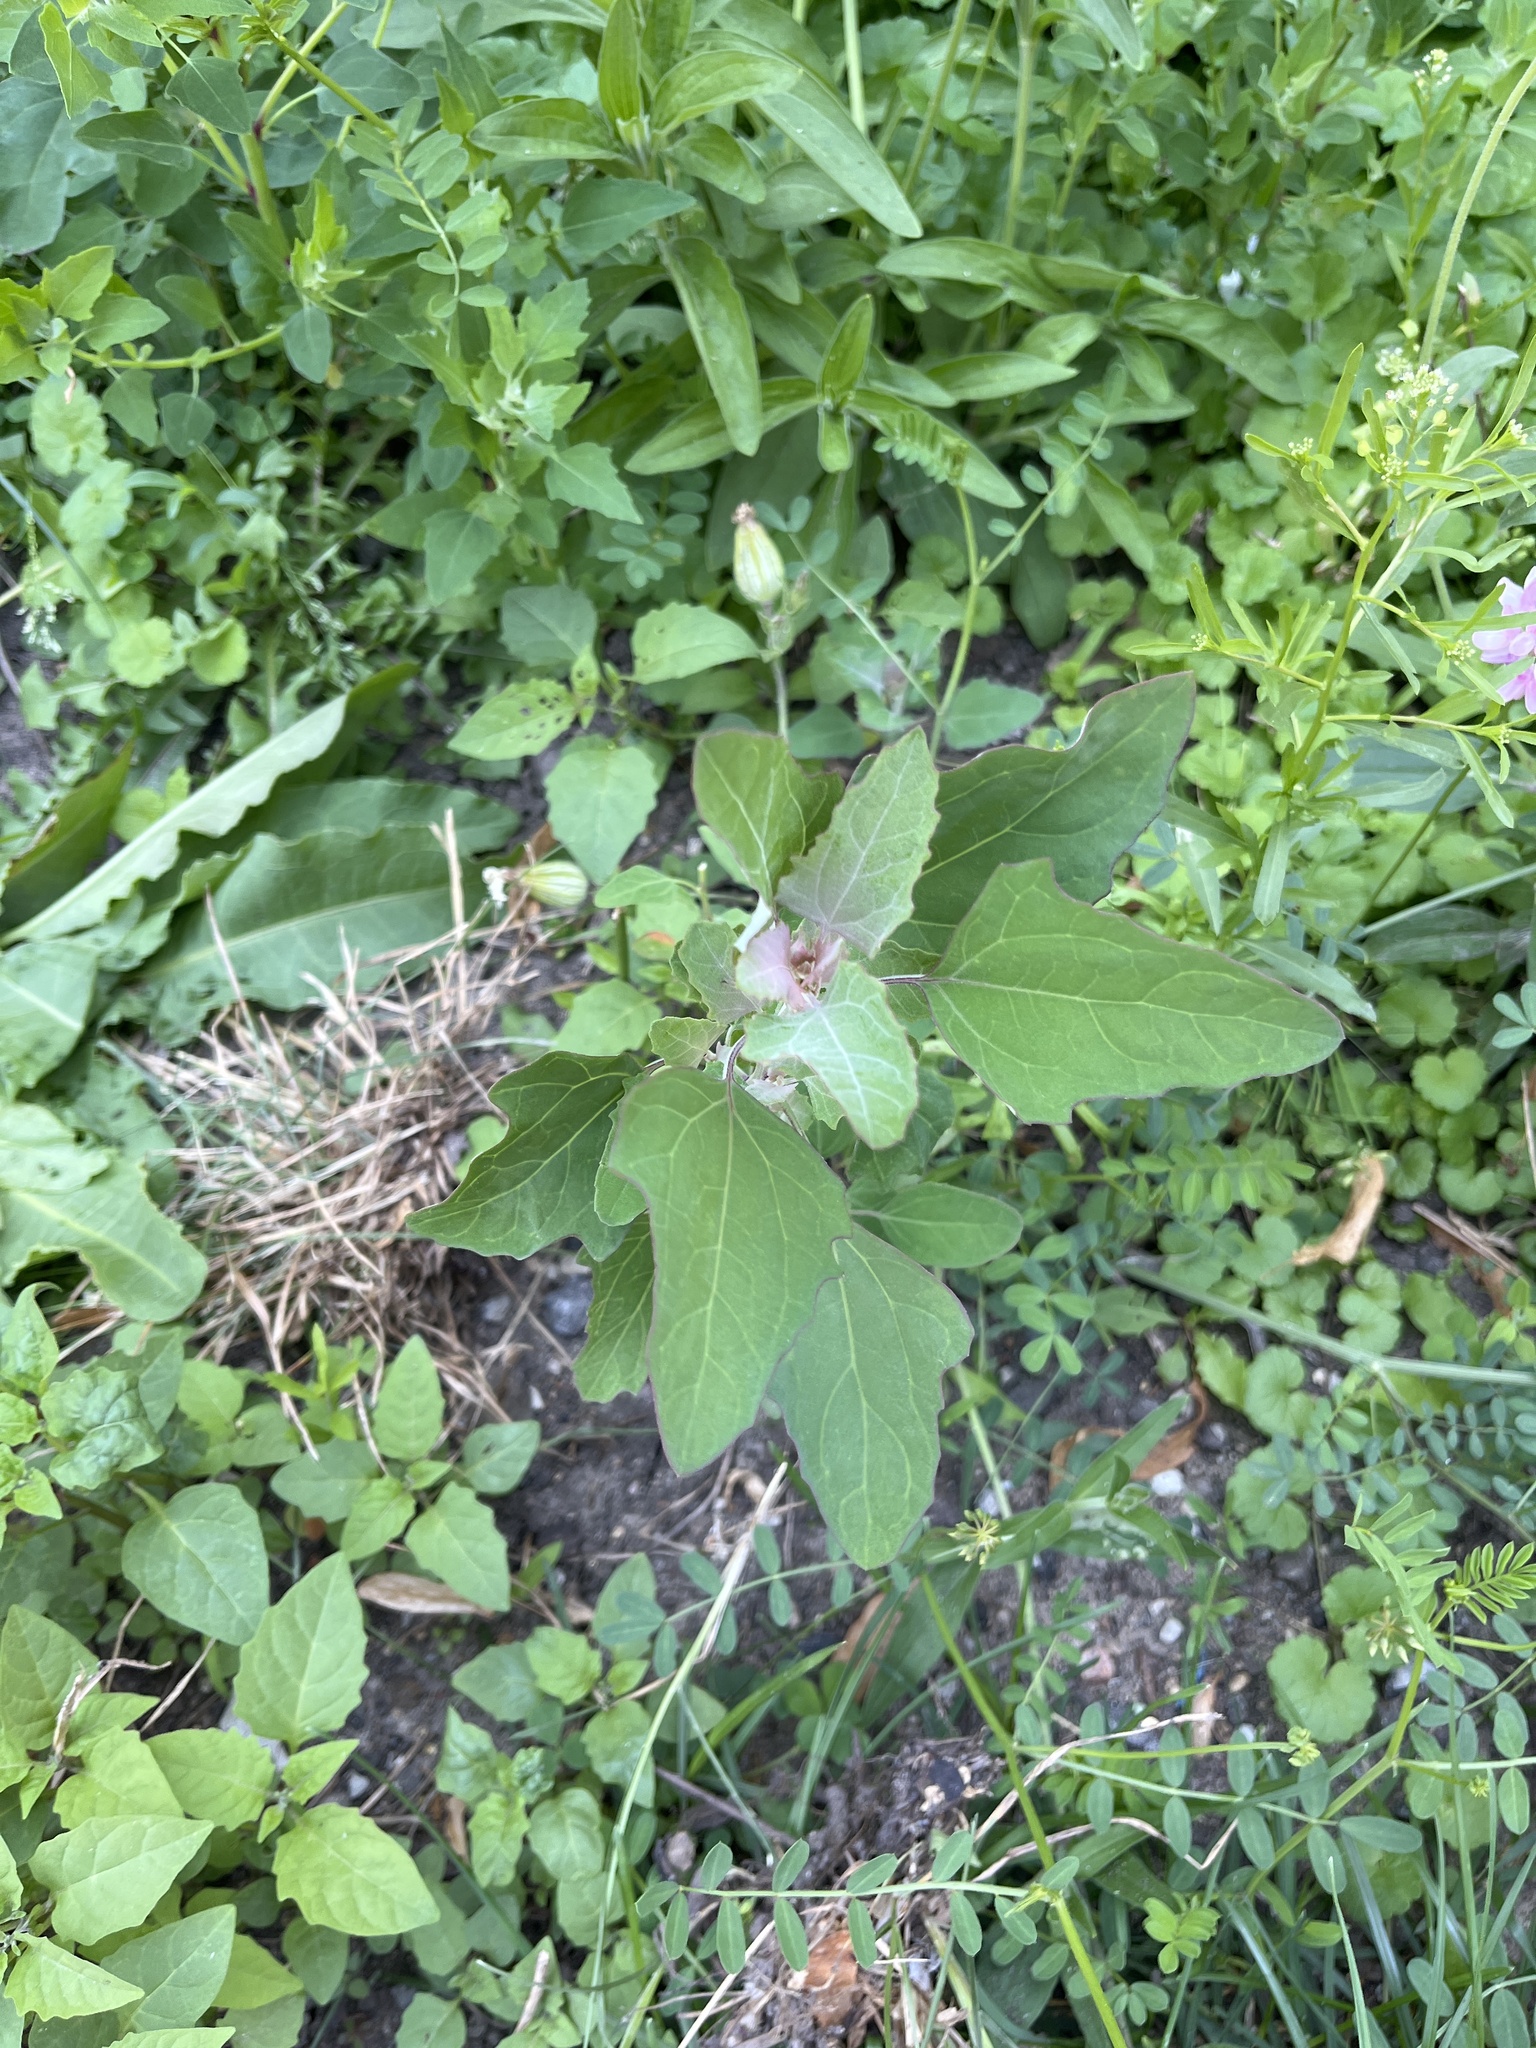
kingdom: Plantae
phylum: Tracheophyta
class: Magnoliopsida
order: Caryophyllales
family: Amaranthaceae
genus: Chenopodium
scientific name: Chenopodium album
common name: Fat-hen
